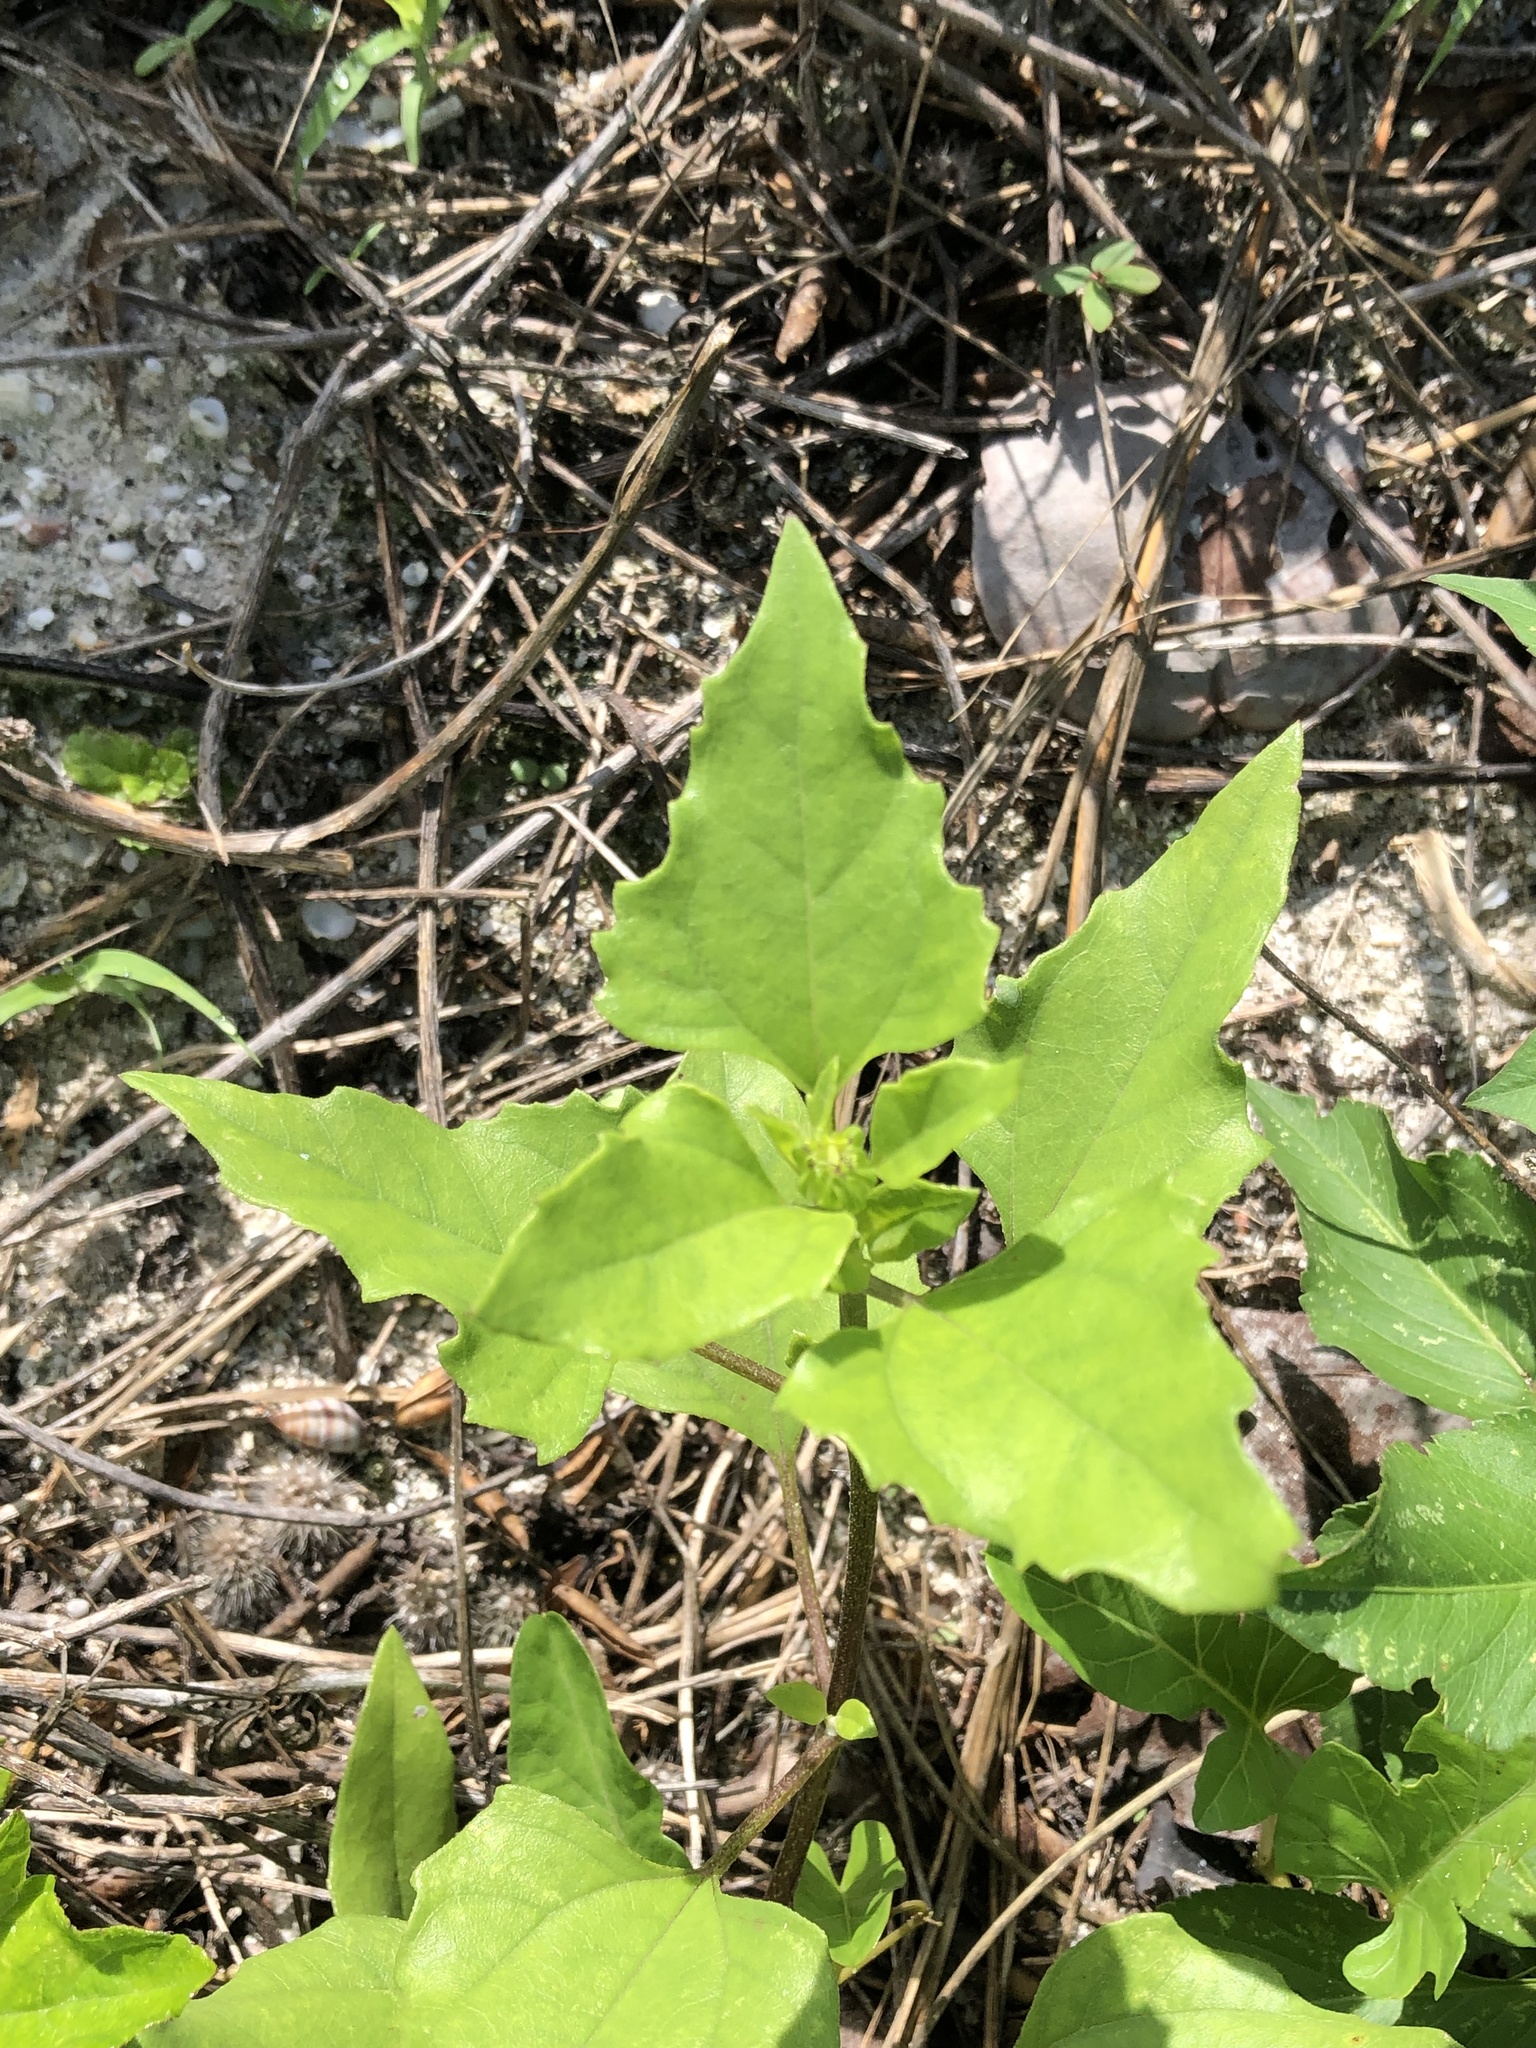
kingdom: Plantae
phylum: Tracheophyta
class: Magnoliopsida
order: Asterales
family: Asteraceae
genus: Helianthus
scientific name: Helianthus debilis
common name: Weak sunflower
